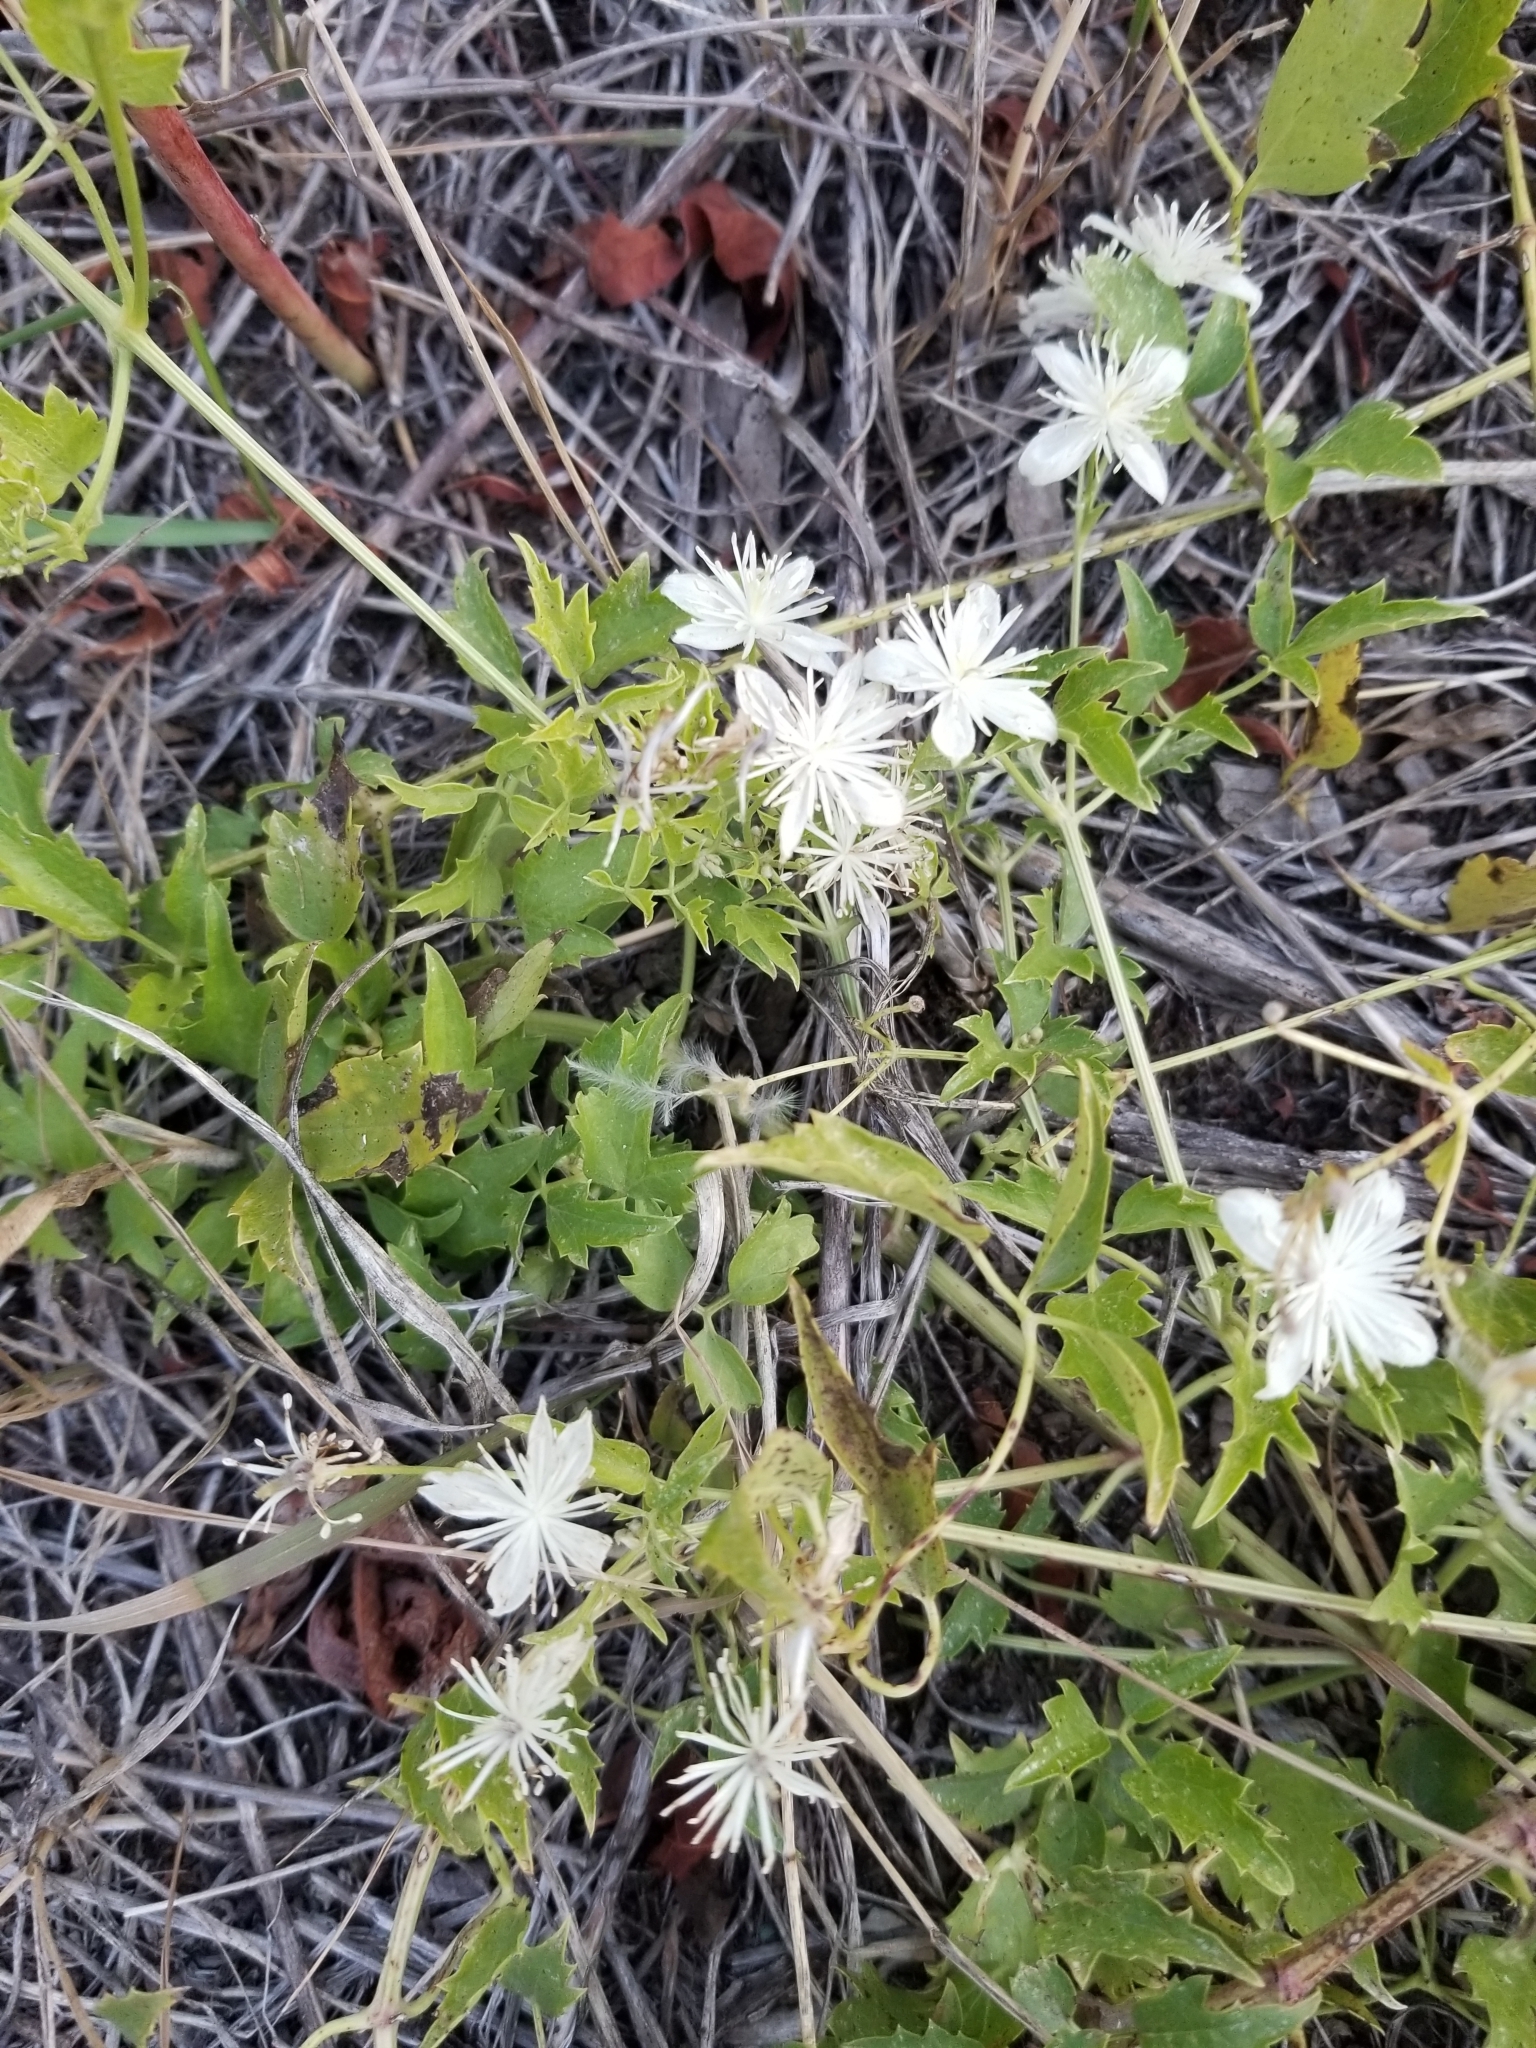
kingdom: Plantae
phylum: Tracheophyta
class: Magnoliopsida
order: Ranunculales
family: Ranunculaceae
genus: Clematis
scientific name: Clematis ligusticifolia
